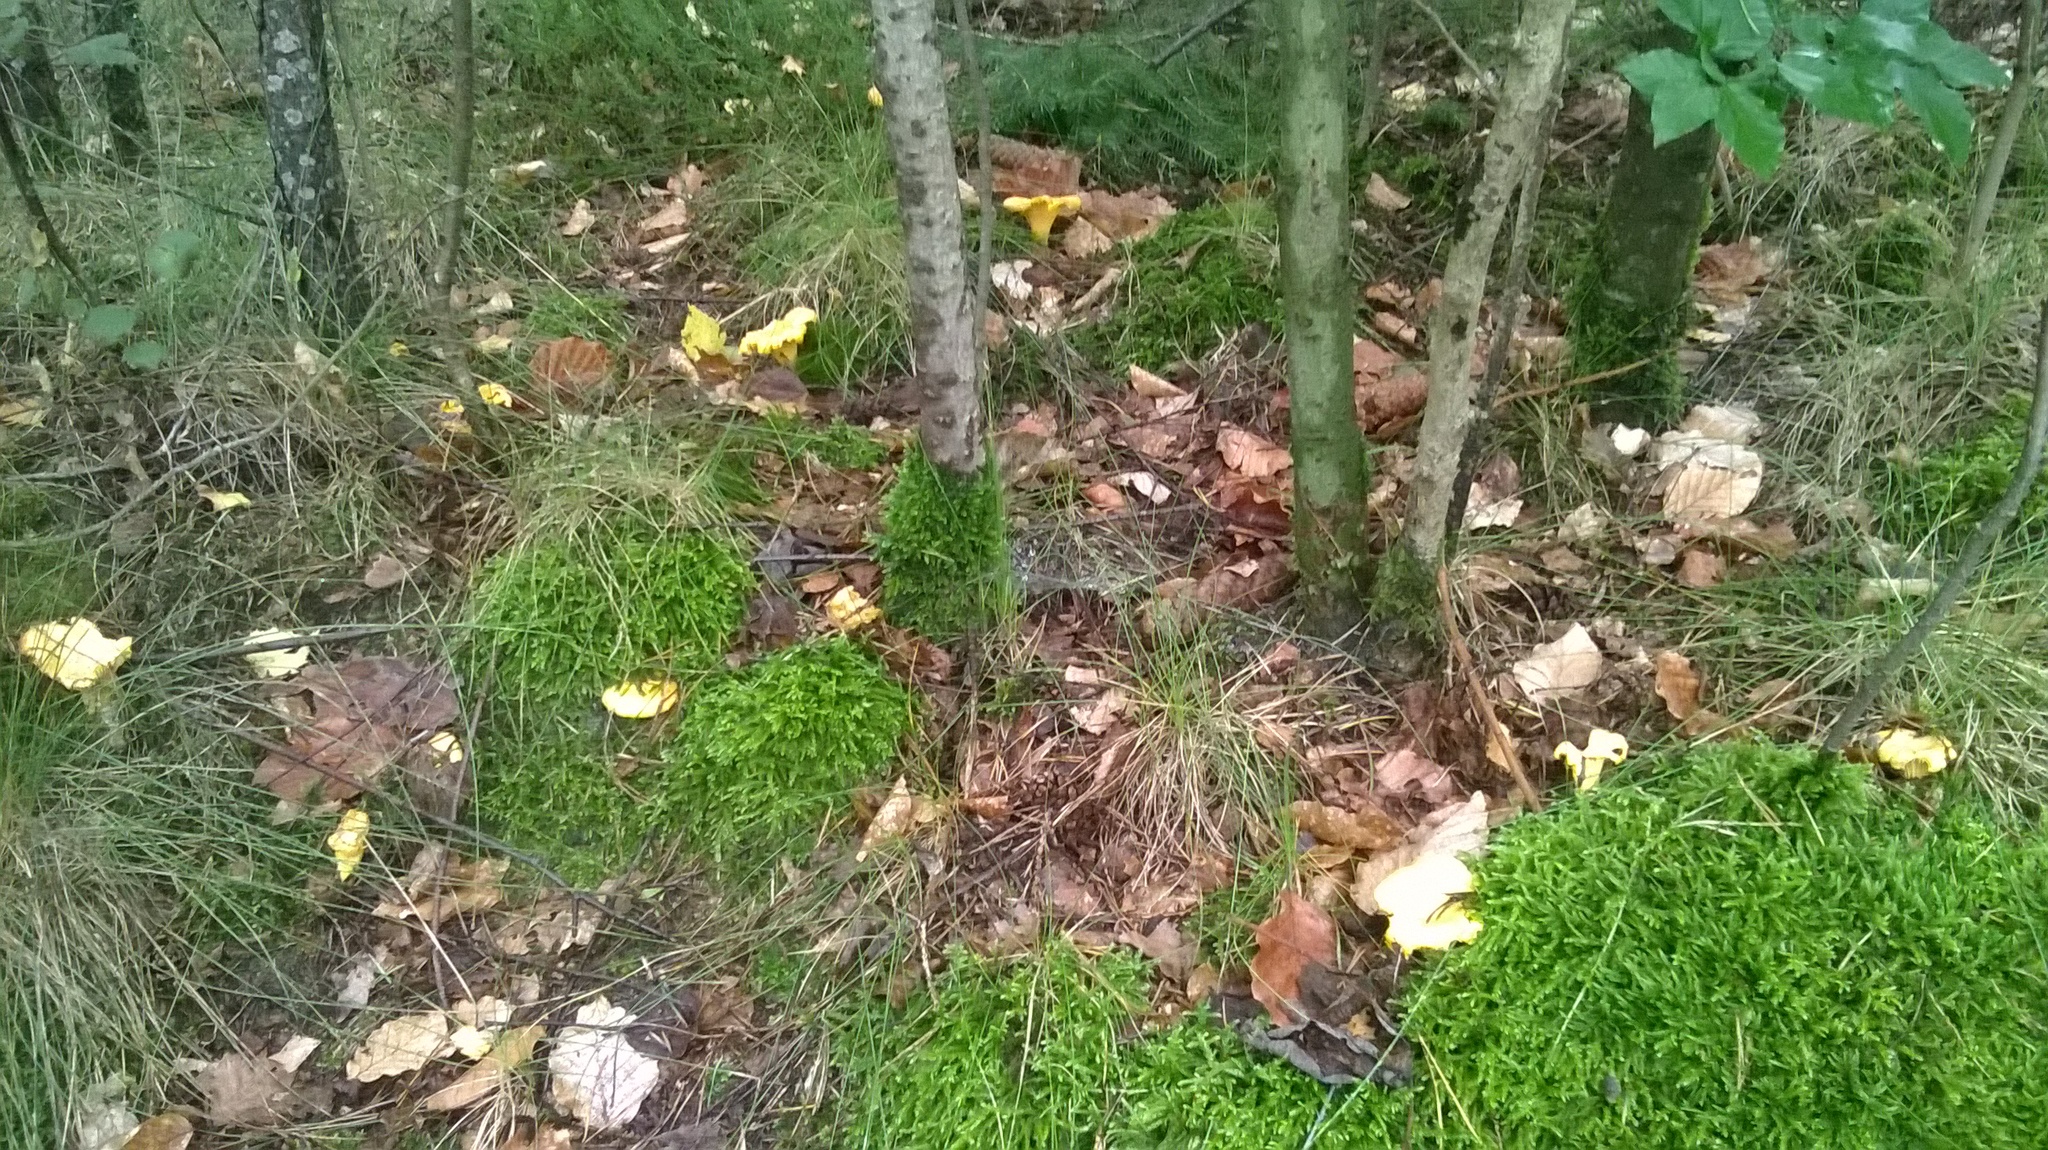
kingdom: Fungi
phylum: Basidiomycota
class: Agaricomycetes
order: Cantharellales
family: Hydnaceae
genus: Cantharellus
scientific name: Cantharellus cibarius
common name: Chanterelle
